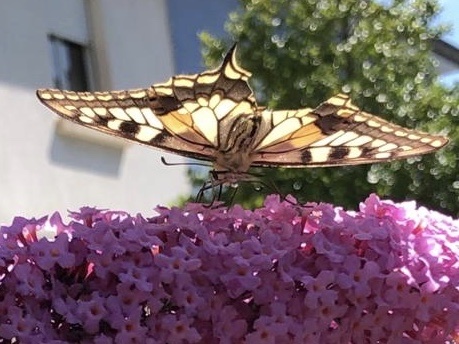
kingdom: Animalia
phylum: Arthropoda
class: Insecta
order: Lepidoptera
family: Papilionidae
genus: Papilio
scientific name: Papilio machaon
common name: Swallowtail
